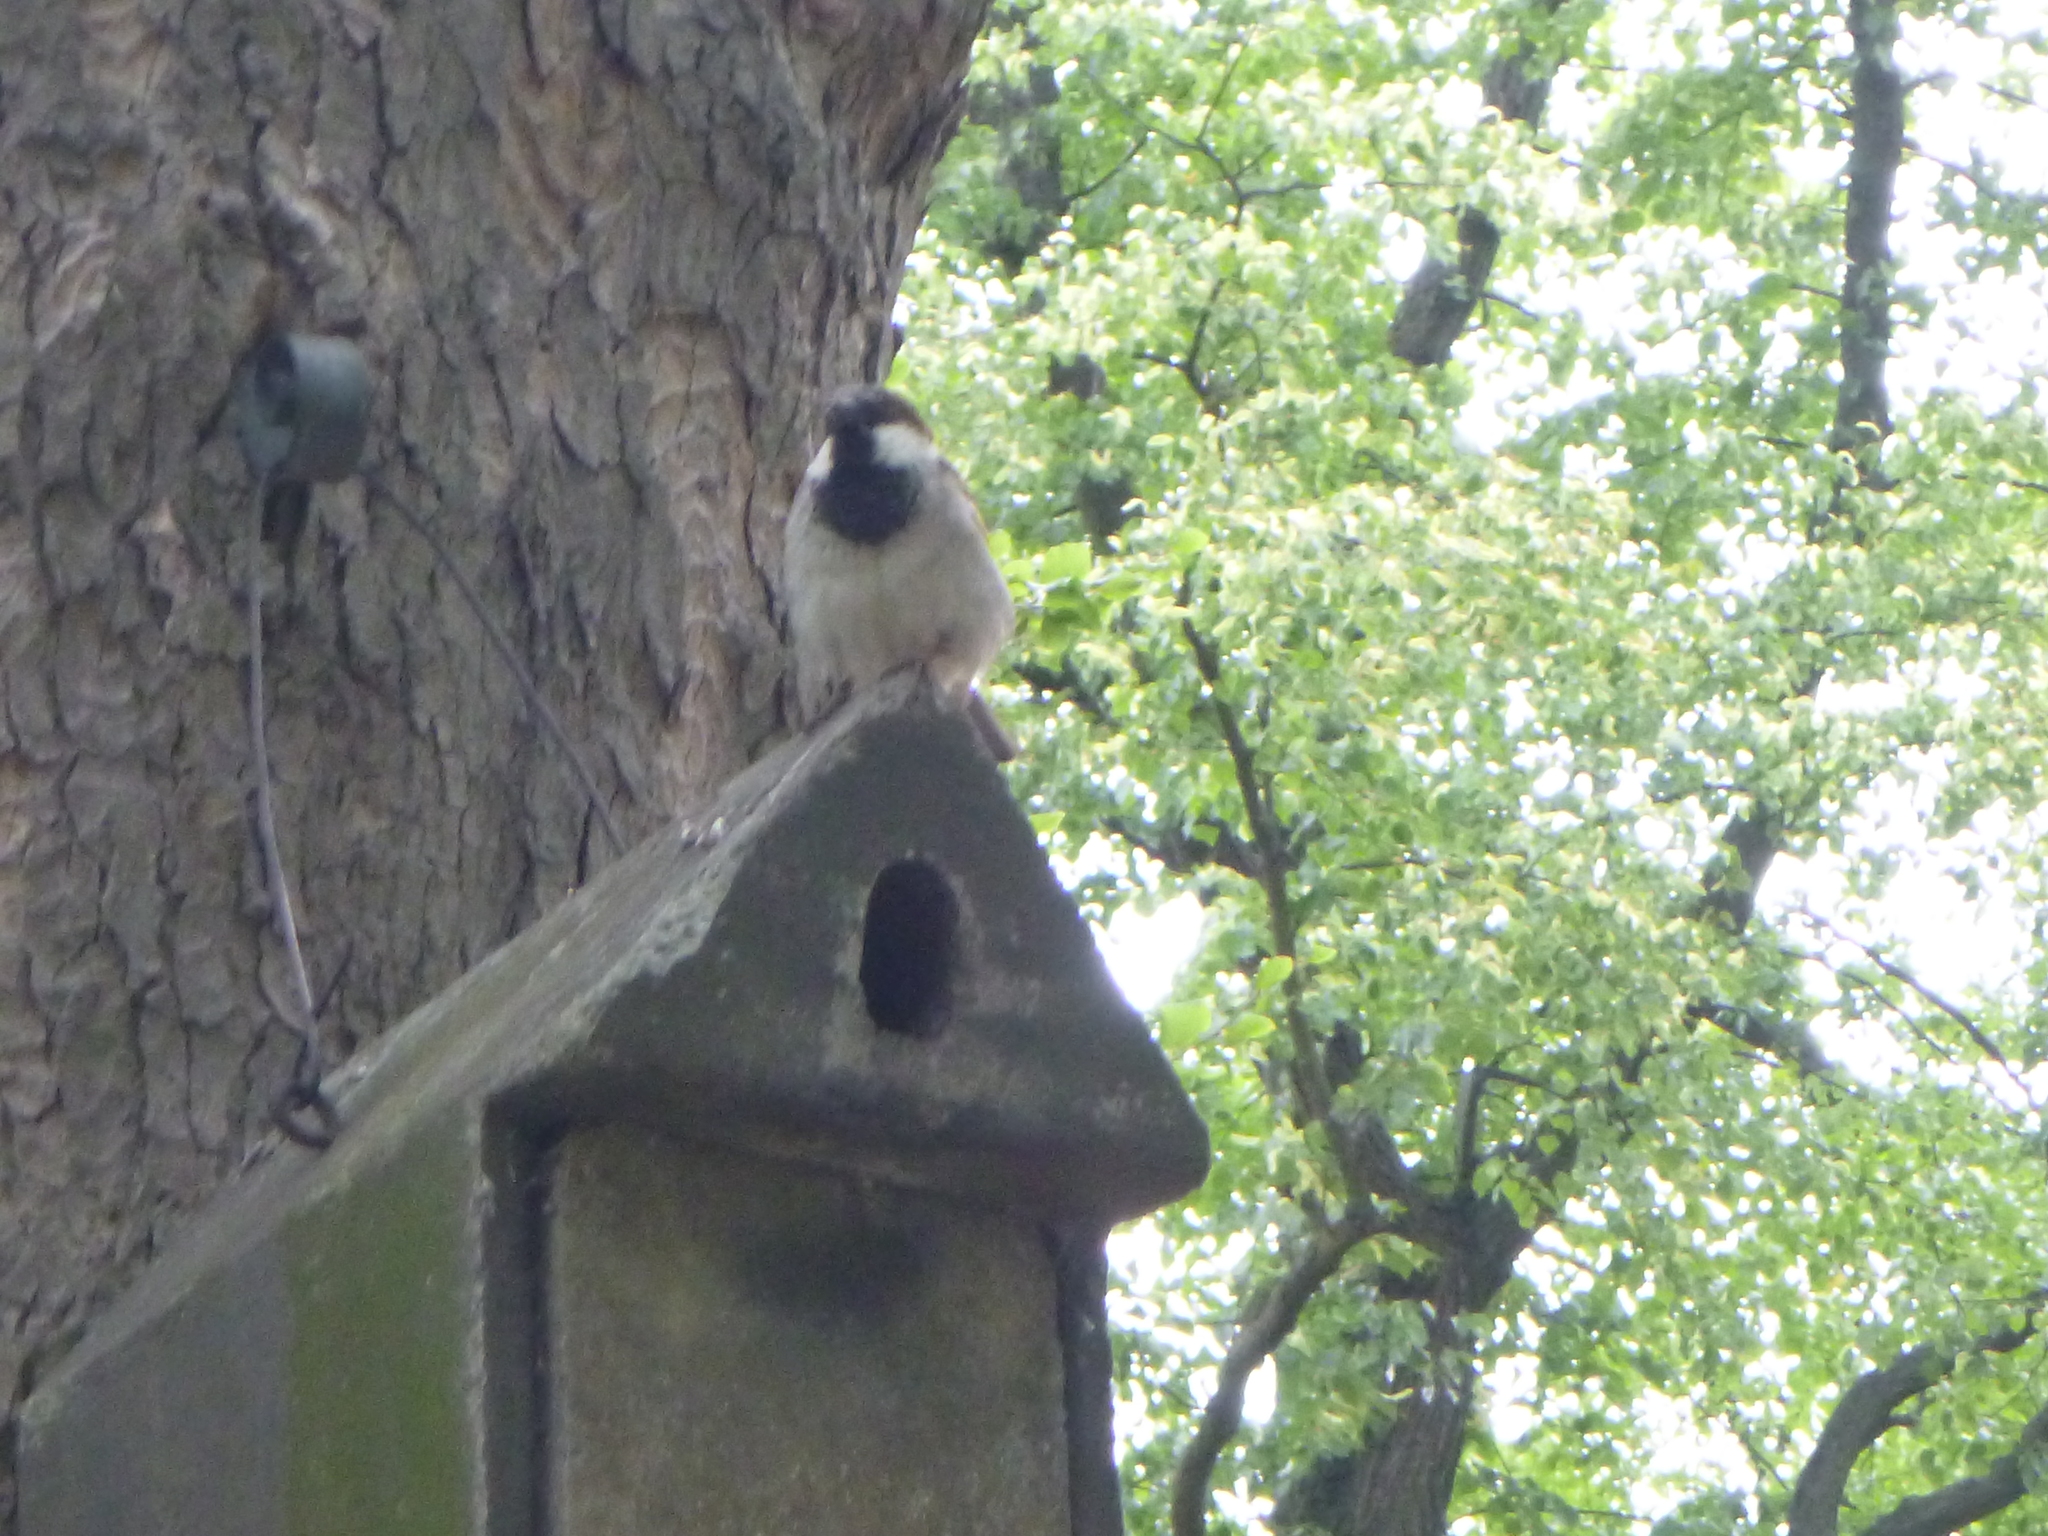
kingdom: Animalia
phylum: Chordata
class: Aves
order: Passeriformes
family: Passeridae
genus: Passer
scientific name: Passer domesticus
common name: House sparrow
